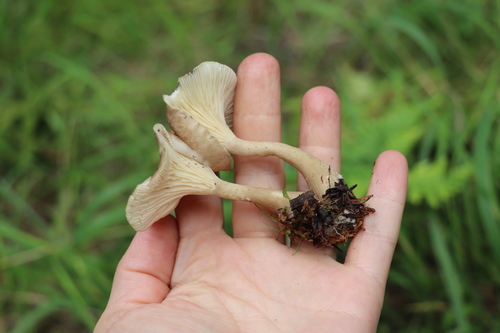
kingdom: Fungi
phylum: Basidiomycota
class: Agaricomycetes
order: Agaricales
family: Hygrophoraceae
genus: Ampulloclitocybe
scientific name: Ampulloclitocybe clavipes
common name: Club foot
